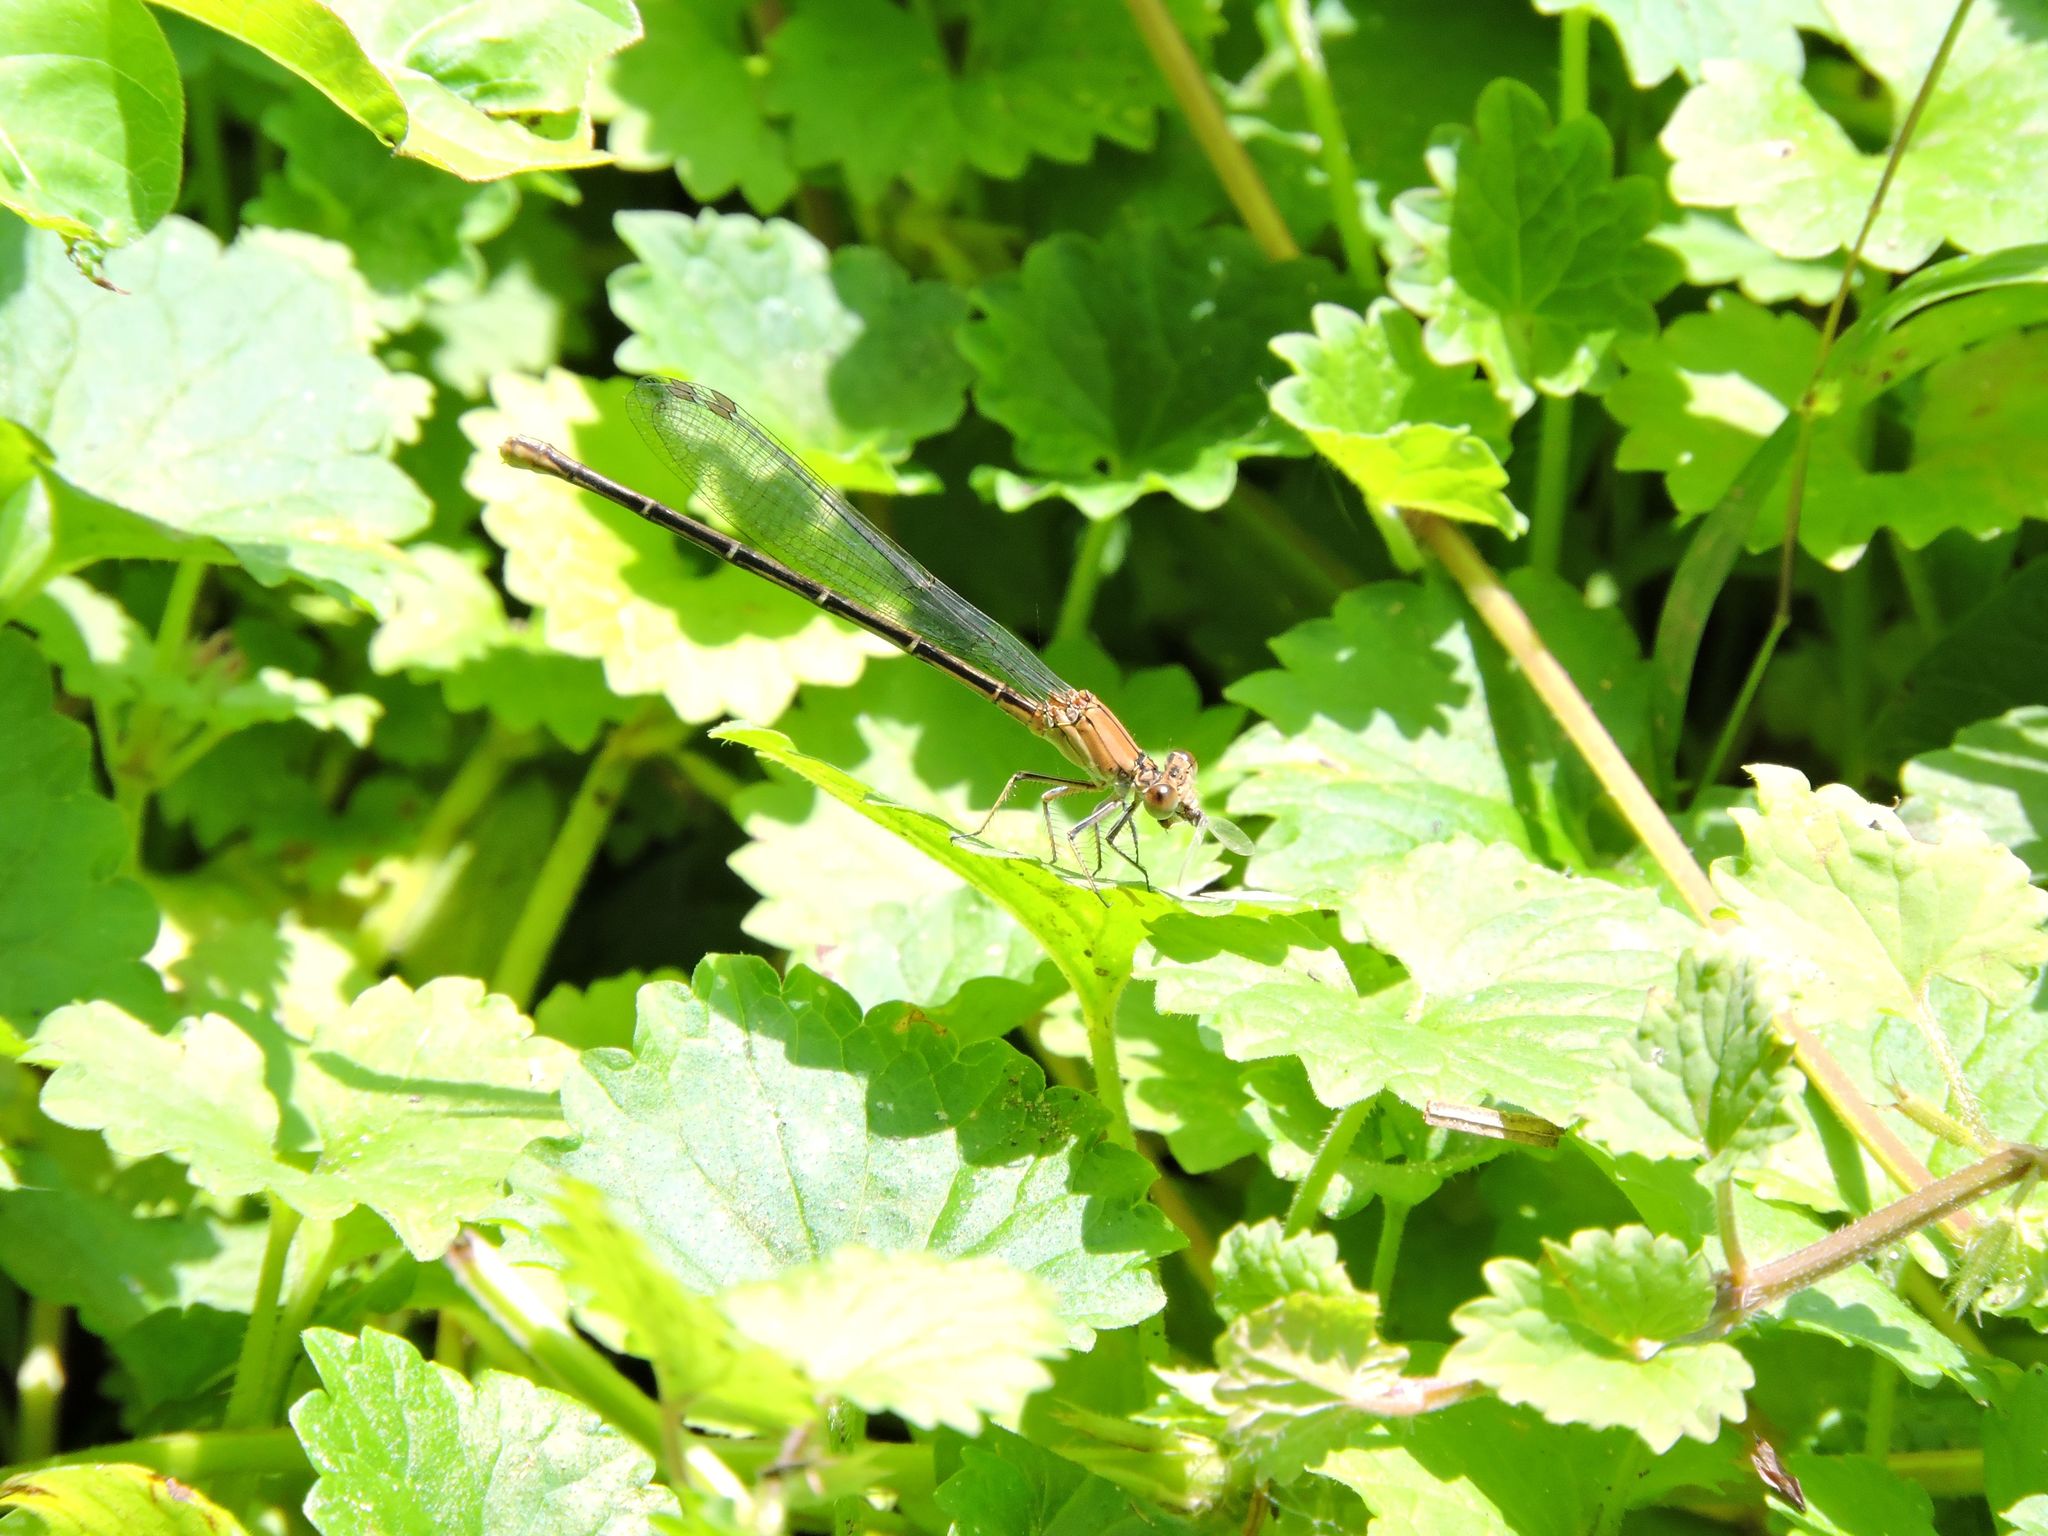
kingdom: Animalia
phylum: Arthropoda
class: Insecta
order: Odonata
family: Coenagrionidae
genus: Argia
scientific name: Argia moesta
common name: Powdered dancer
